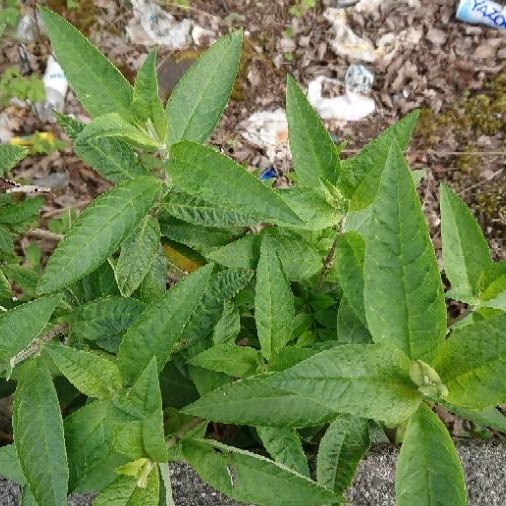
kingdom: Plantae
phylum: Tracheophyta
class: Magnoliopsida
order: Lamiales
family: Scrophulariaceae
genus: Buddleja
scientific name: Buddleja davidii
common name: Butterfly-bush
